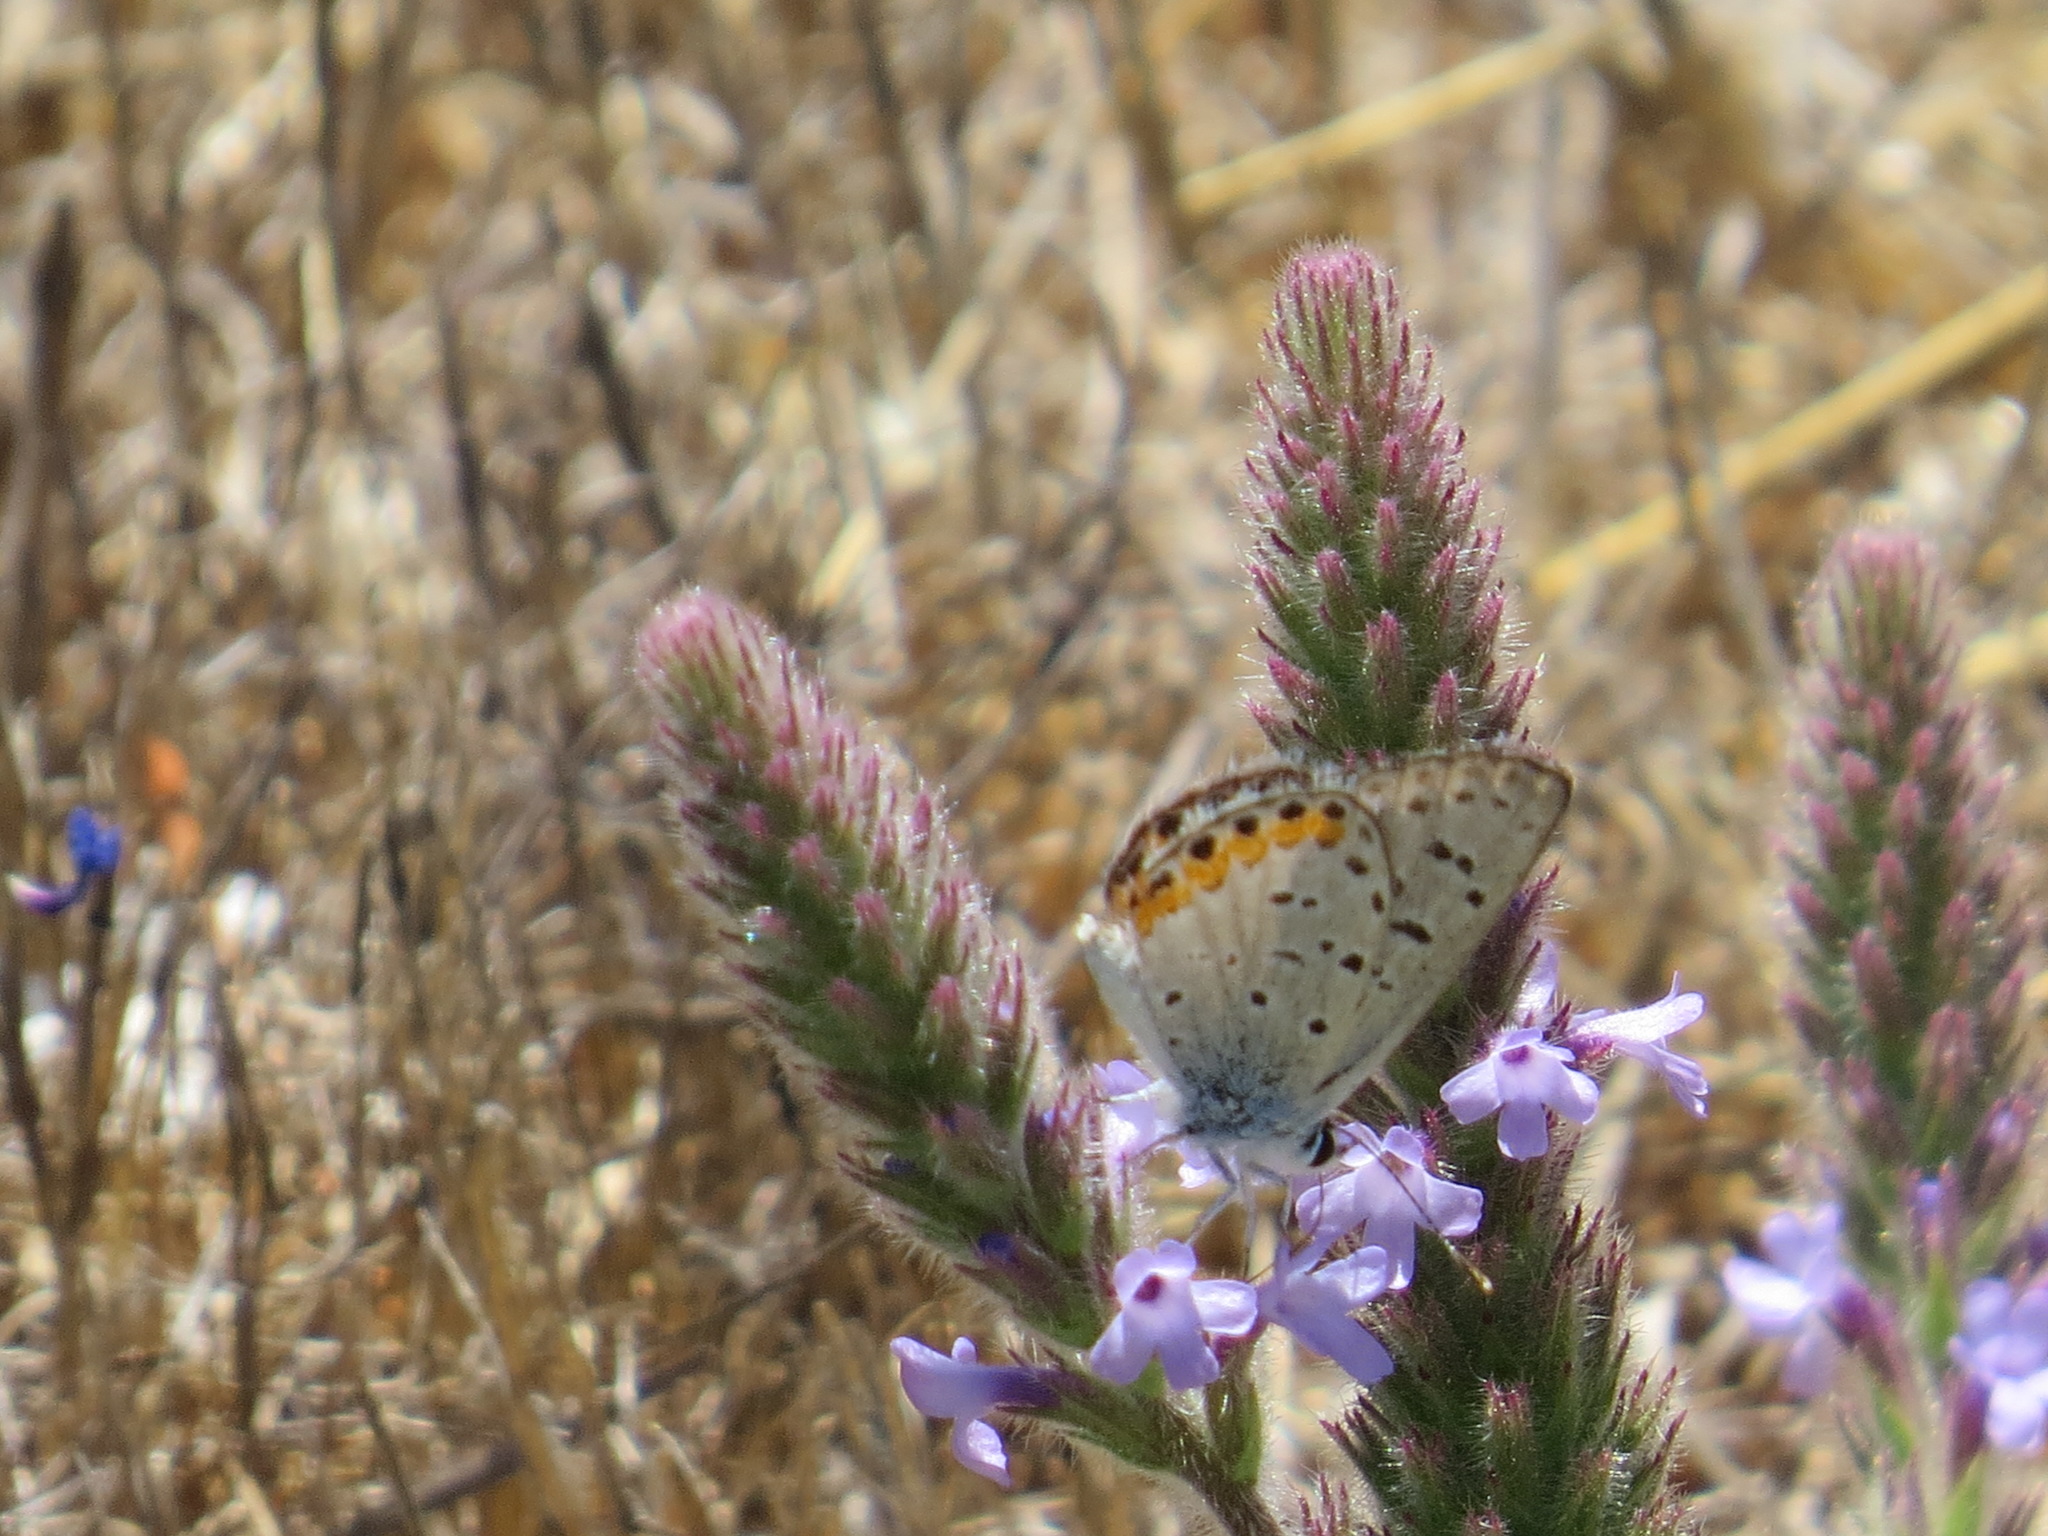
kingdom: Animalia
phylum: Arthropoda
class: Insecta
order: Lepidoptera
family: Lycaenidae
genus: Icaricia
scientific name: Icaricia acmon
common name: Acmon blue
